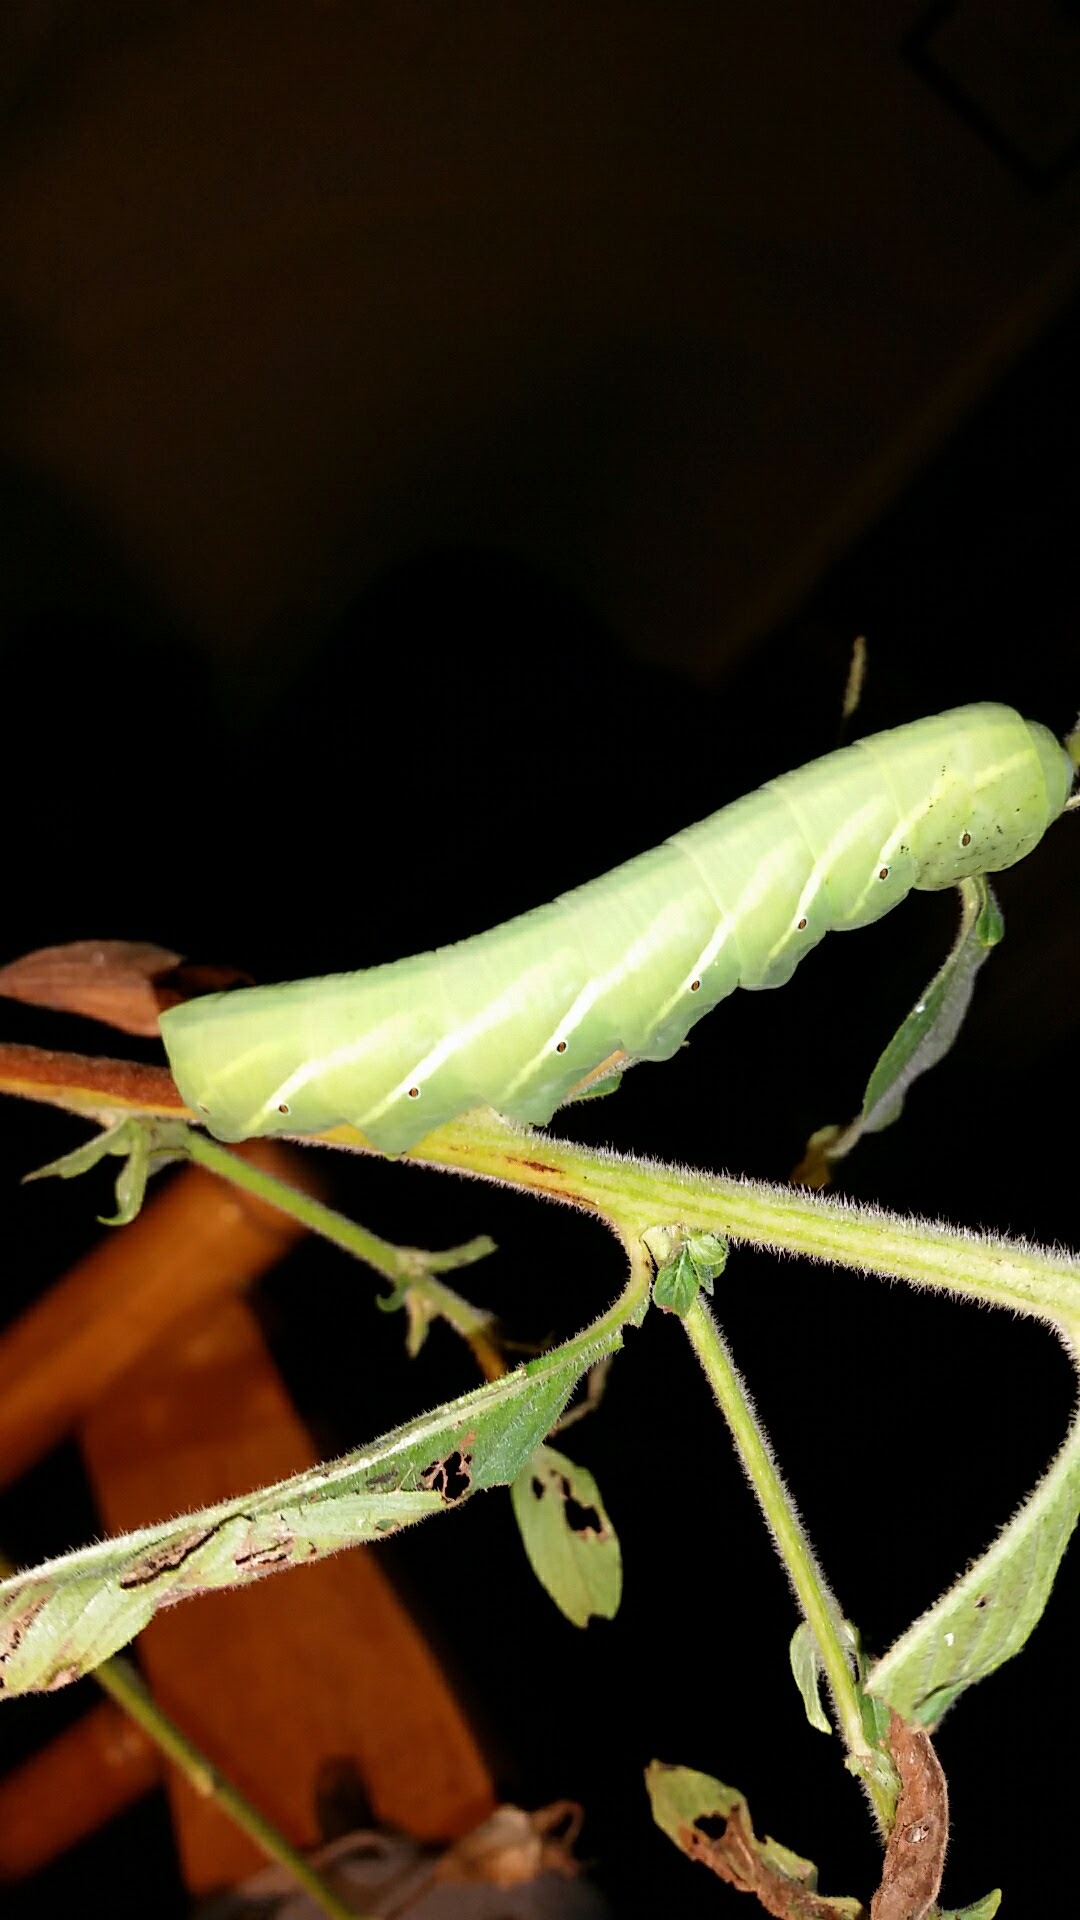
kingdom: Animalia
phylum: Arthropoda
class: Insecta
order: Lepidoptera
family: Sphingidae
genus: Eumorpha
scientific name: Eumorpha fasciatus
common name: Banded sphinx
